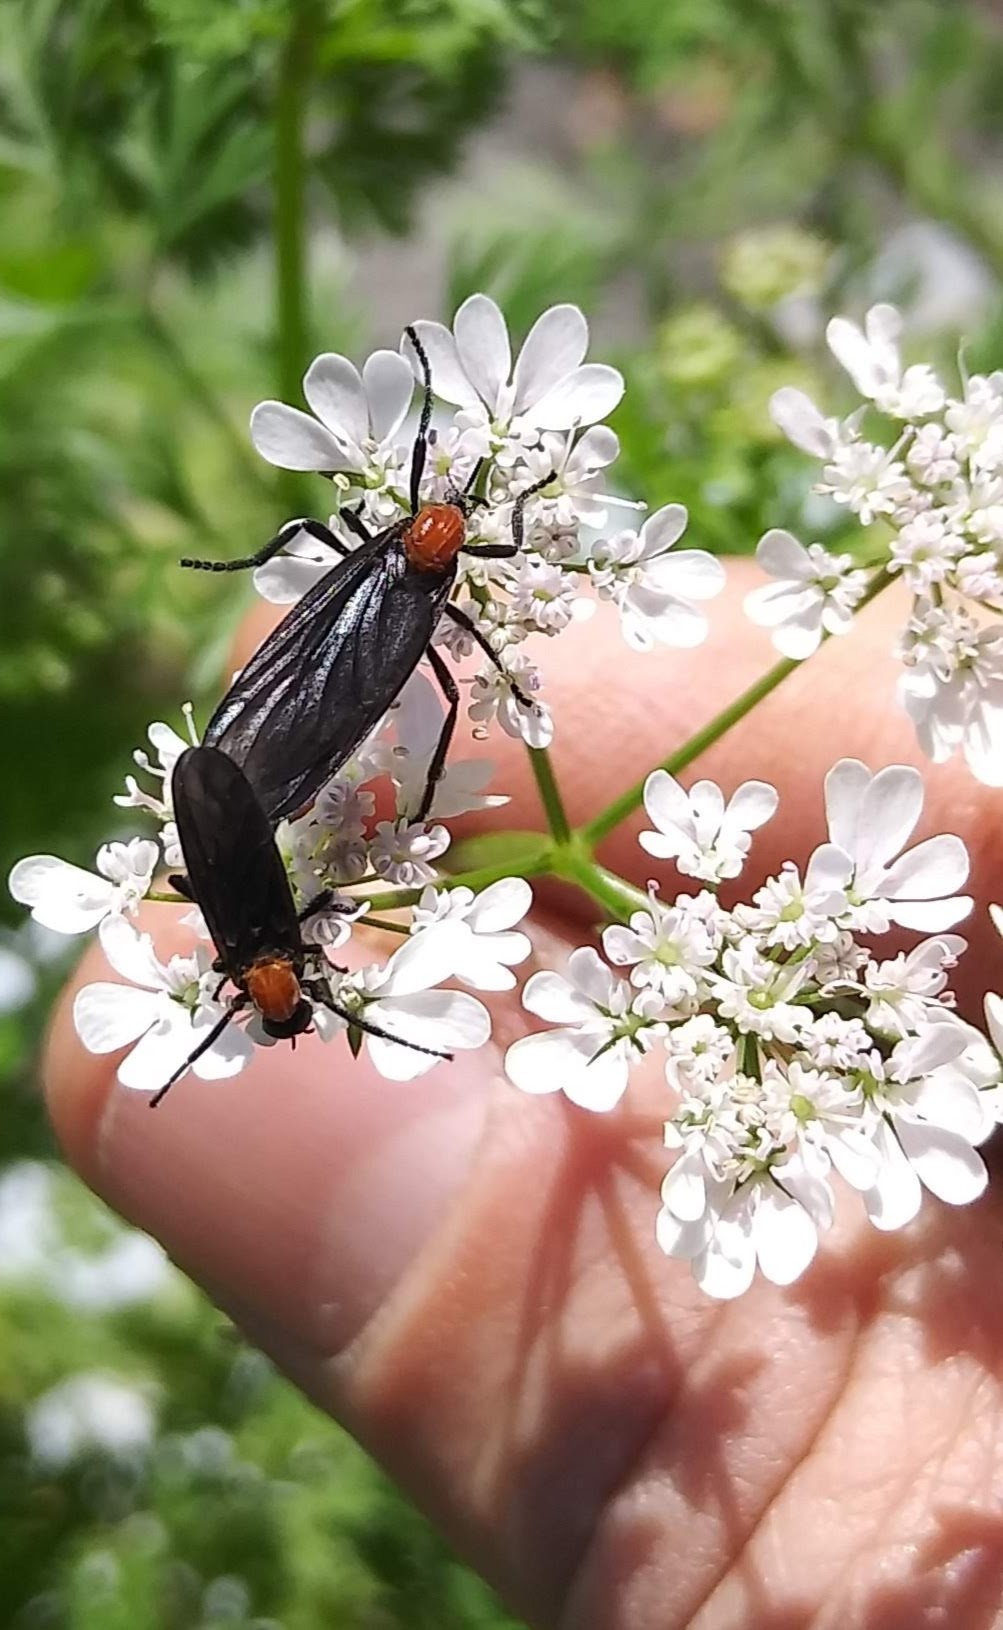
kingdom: Animalia
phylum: Arthropoda
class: Insecta
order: Diptera
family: Bibionidae
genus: Plecia
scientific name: Plecia nearctica
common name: March fly
